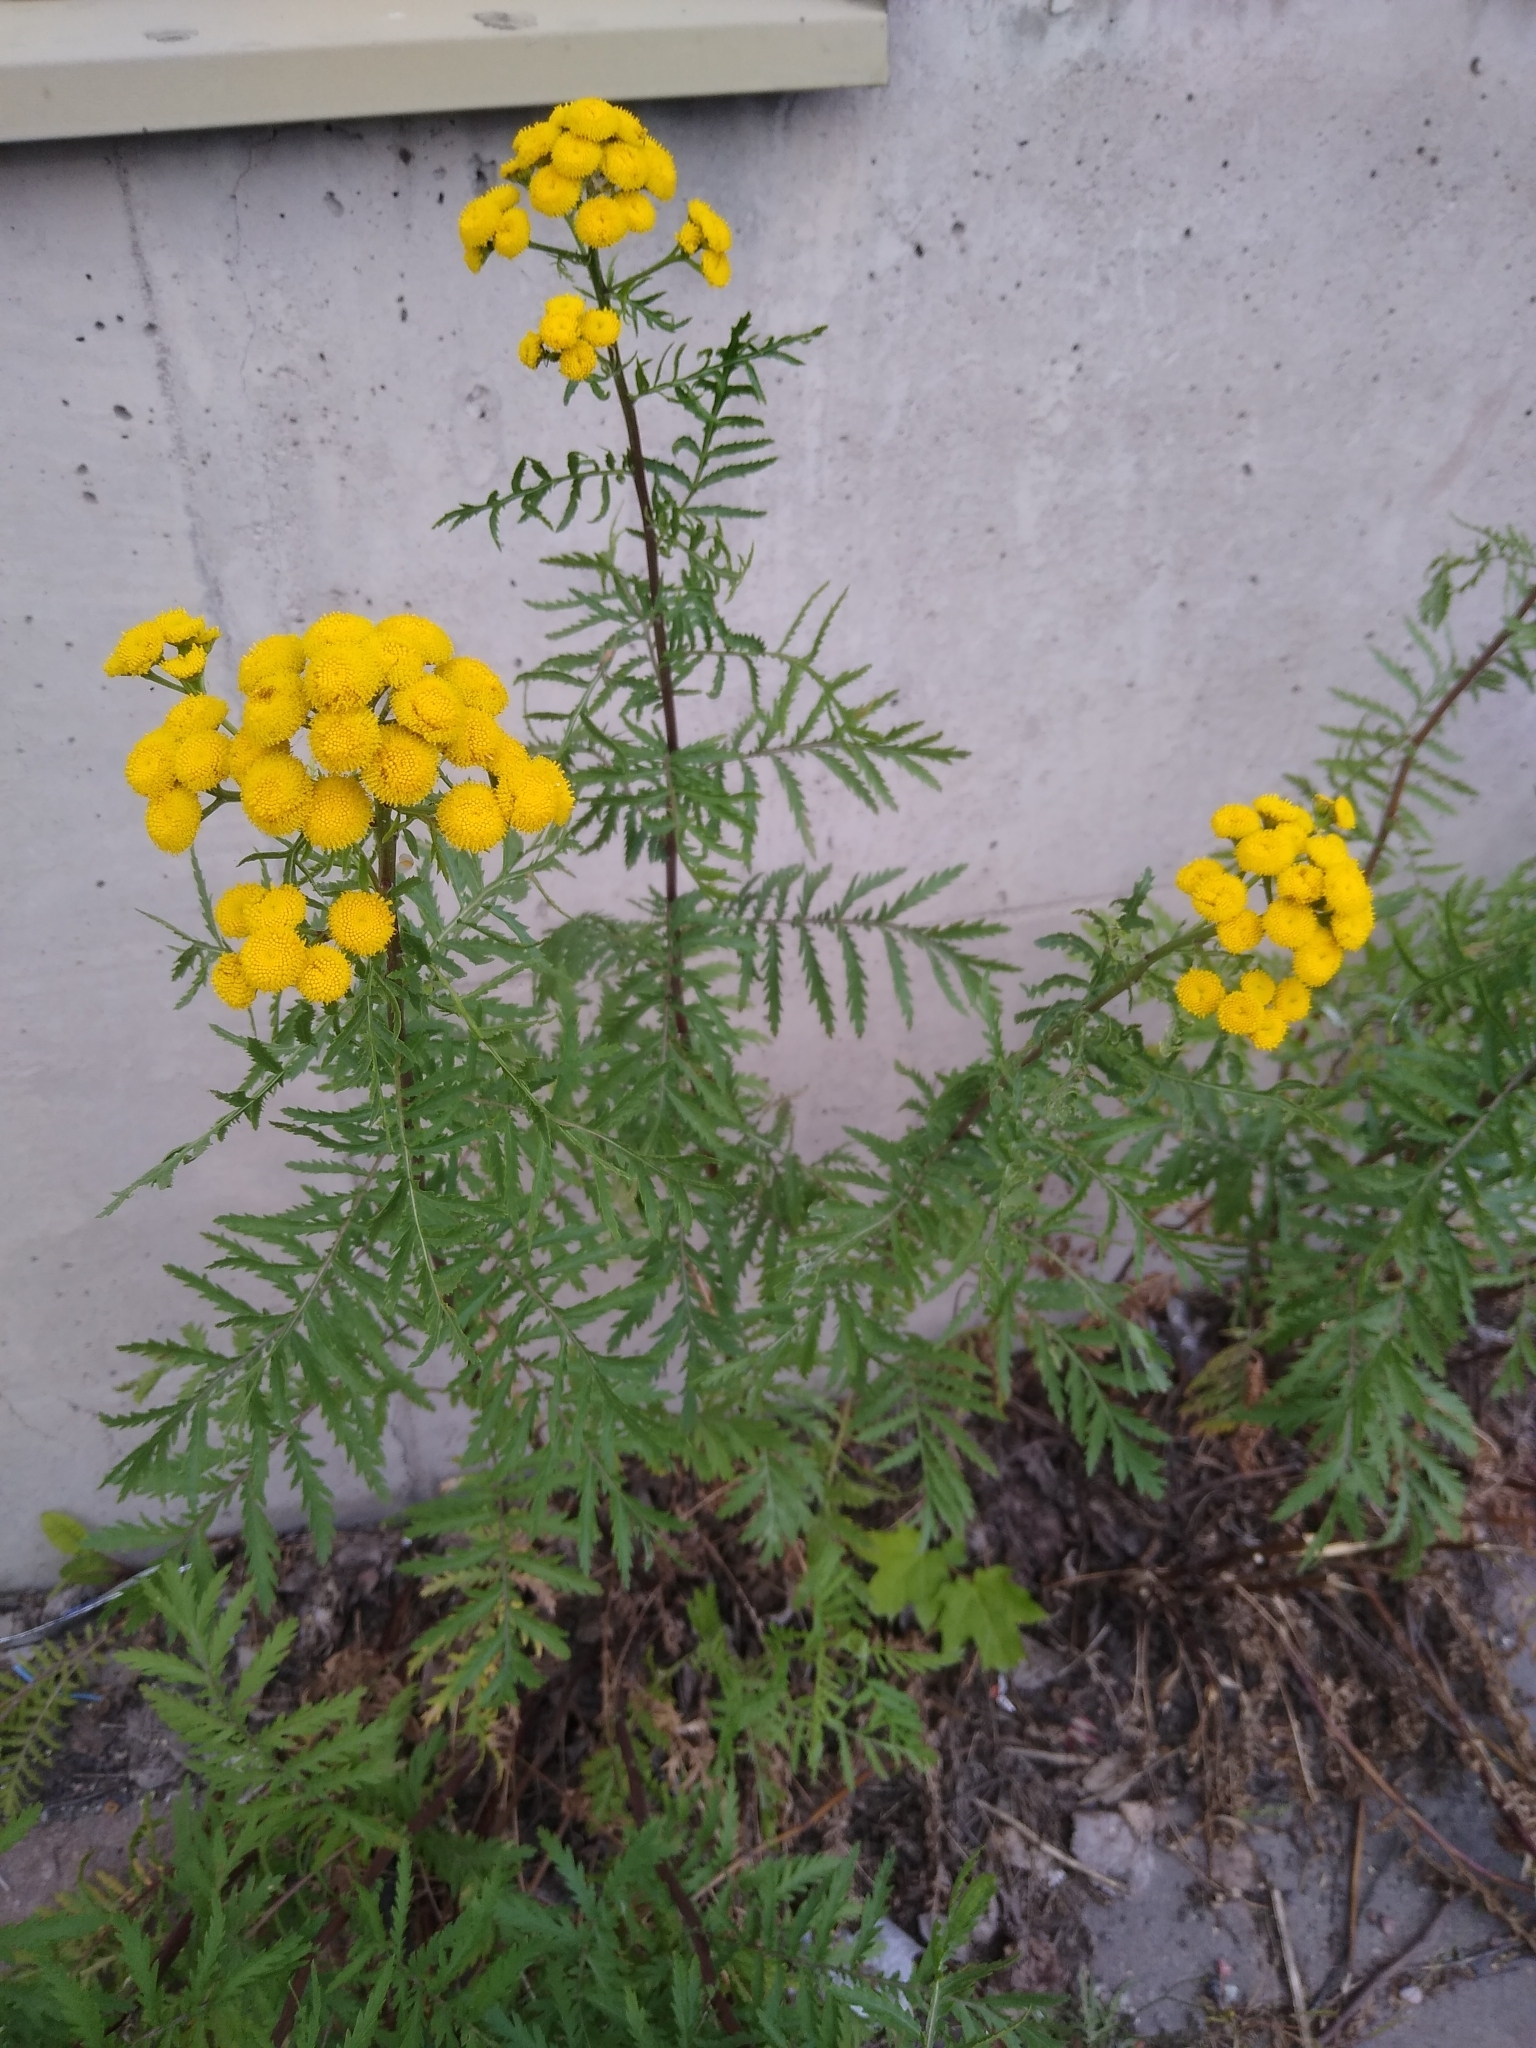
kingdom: Plantae
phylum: Tracheophyta
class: Magnoliopsida
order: Asterales
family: Asteraceae
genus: Tanacetum
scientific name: Tanacetum vulgare
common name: Common tansy
